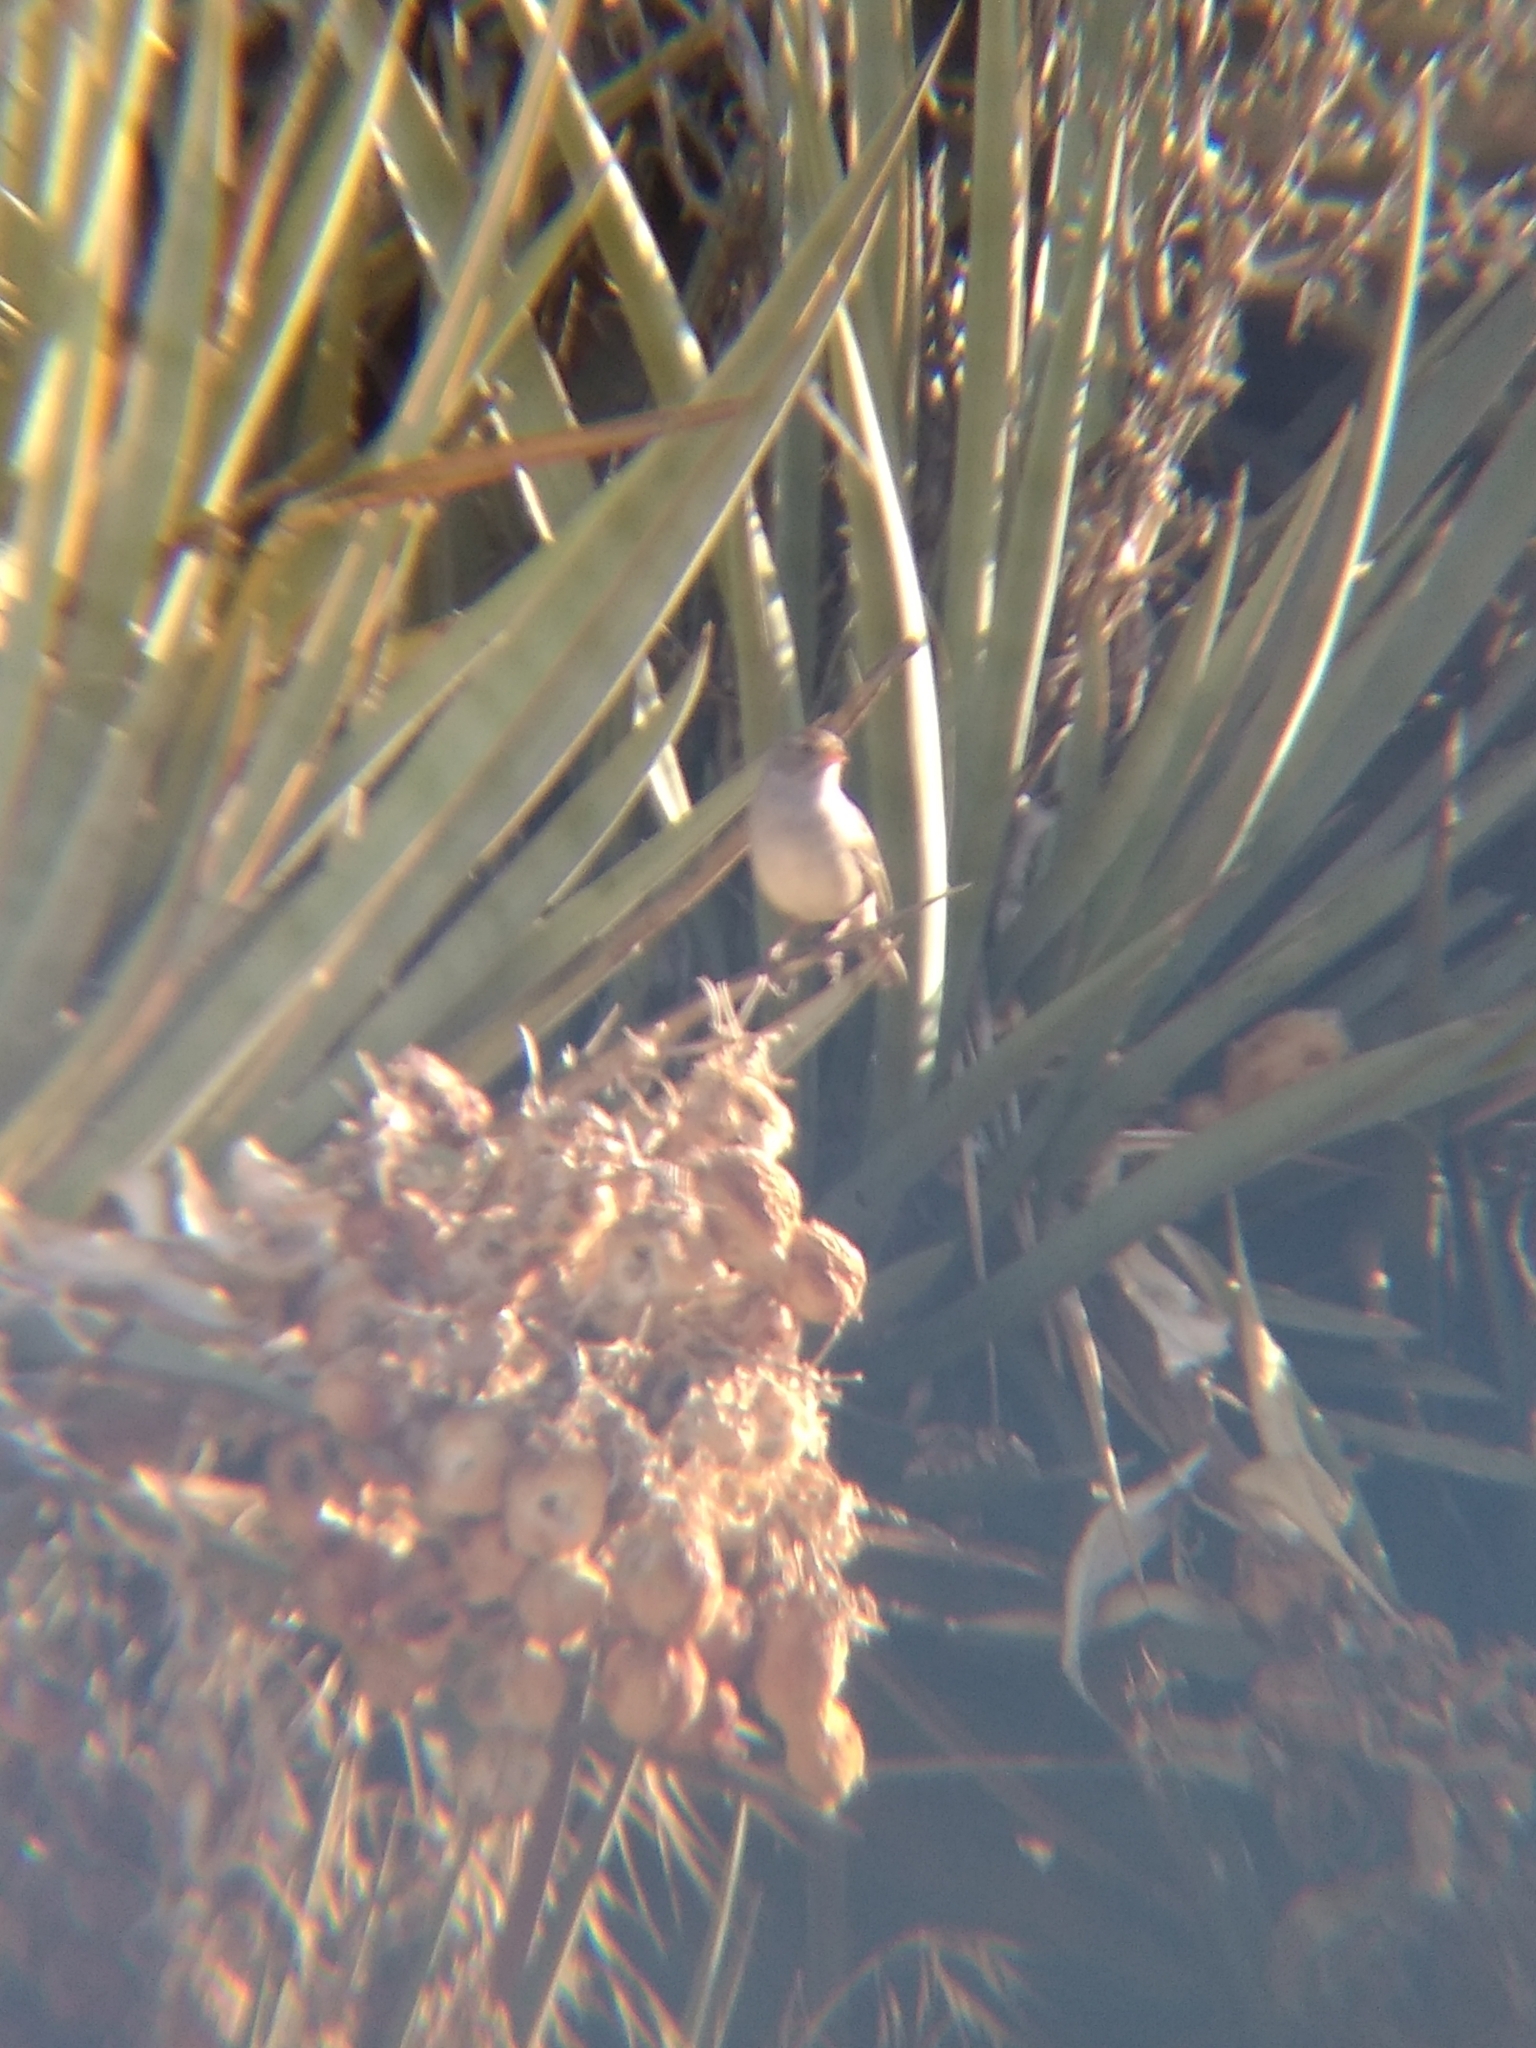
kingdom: Animalia
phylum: Chordata
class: Aves
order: Passeriformes
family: Passerellidae
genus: Zonotrichia
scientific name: Zonotrichia leucophrys
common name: White-crowned sparrow
